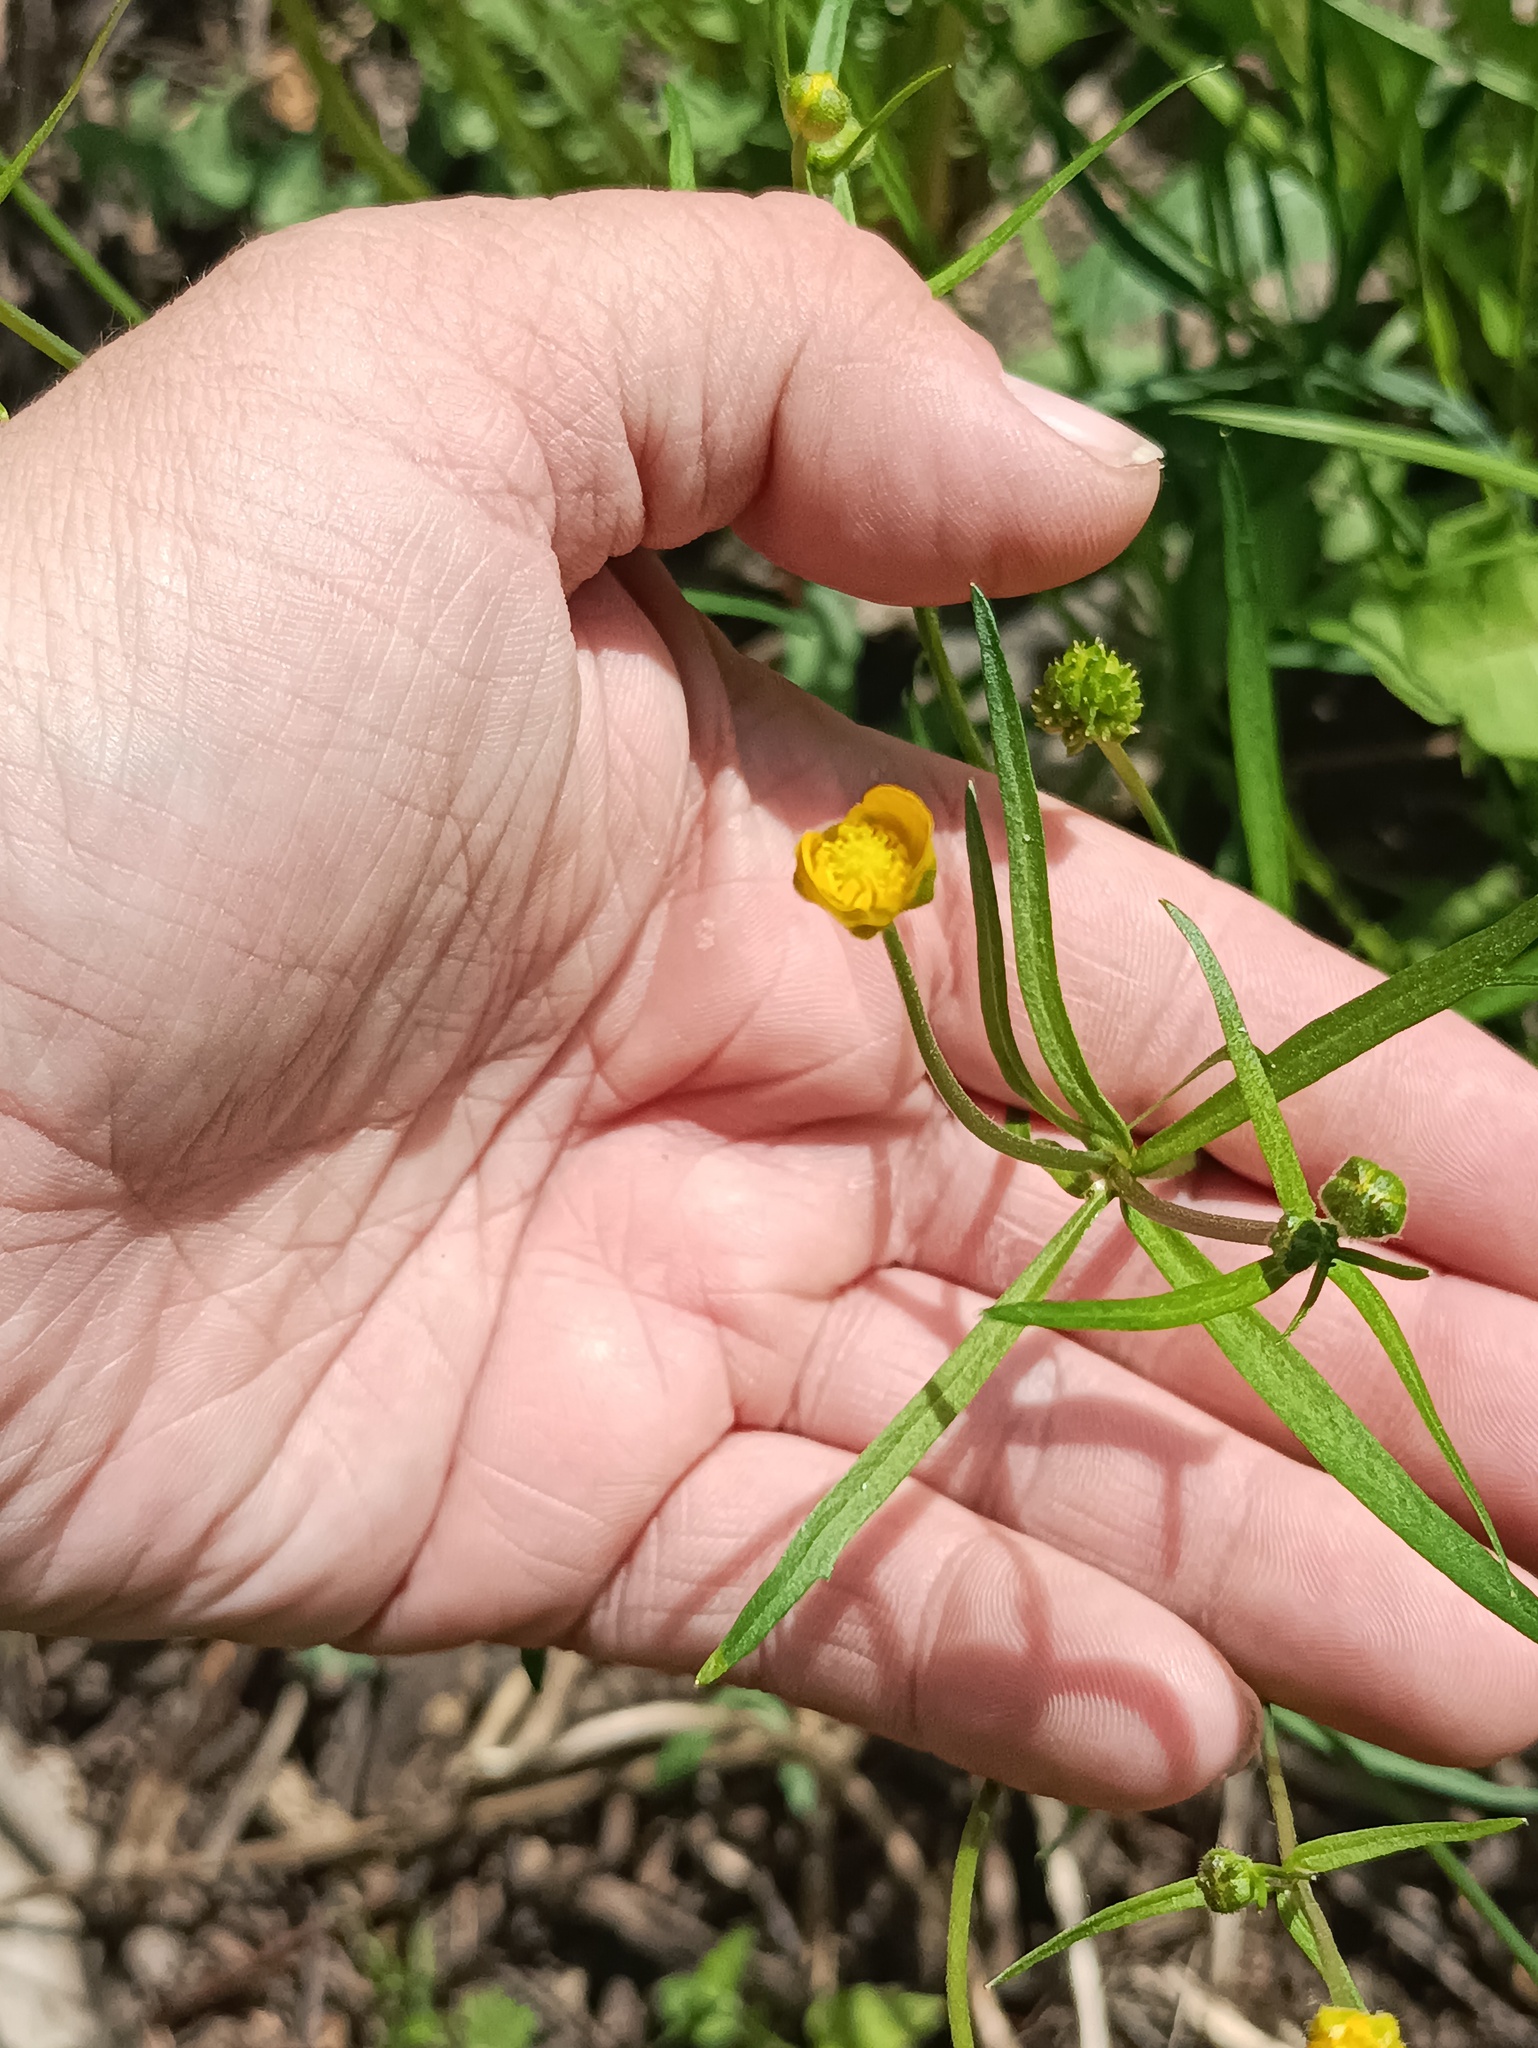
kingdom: Plantae
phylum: Tracheophyta
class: Magnoliopsida
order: Ranunculales
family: Ranunculaceae
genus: Ranunculus
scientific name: Ranunculus auricomus
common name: Goldilocks buttercup
